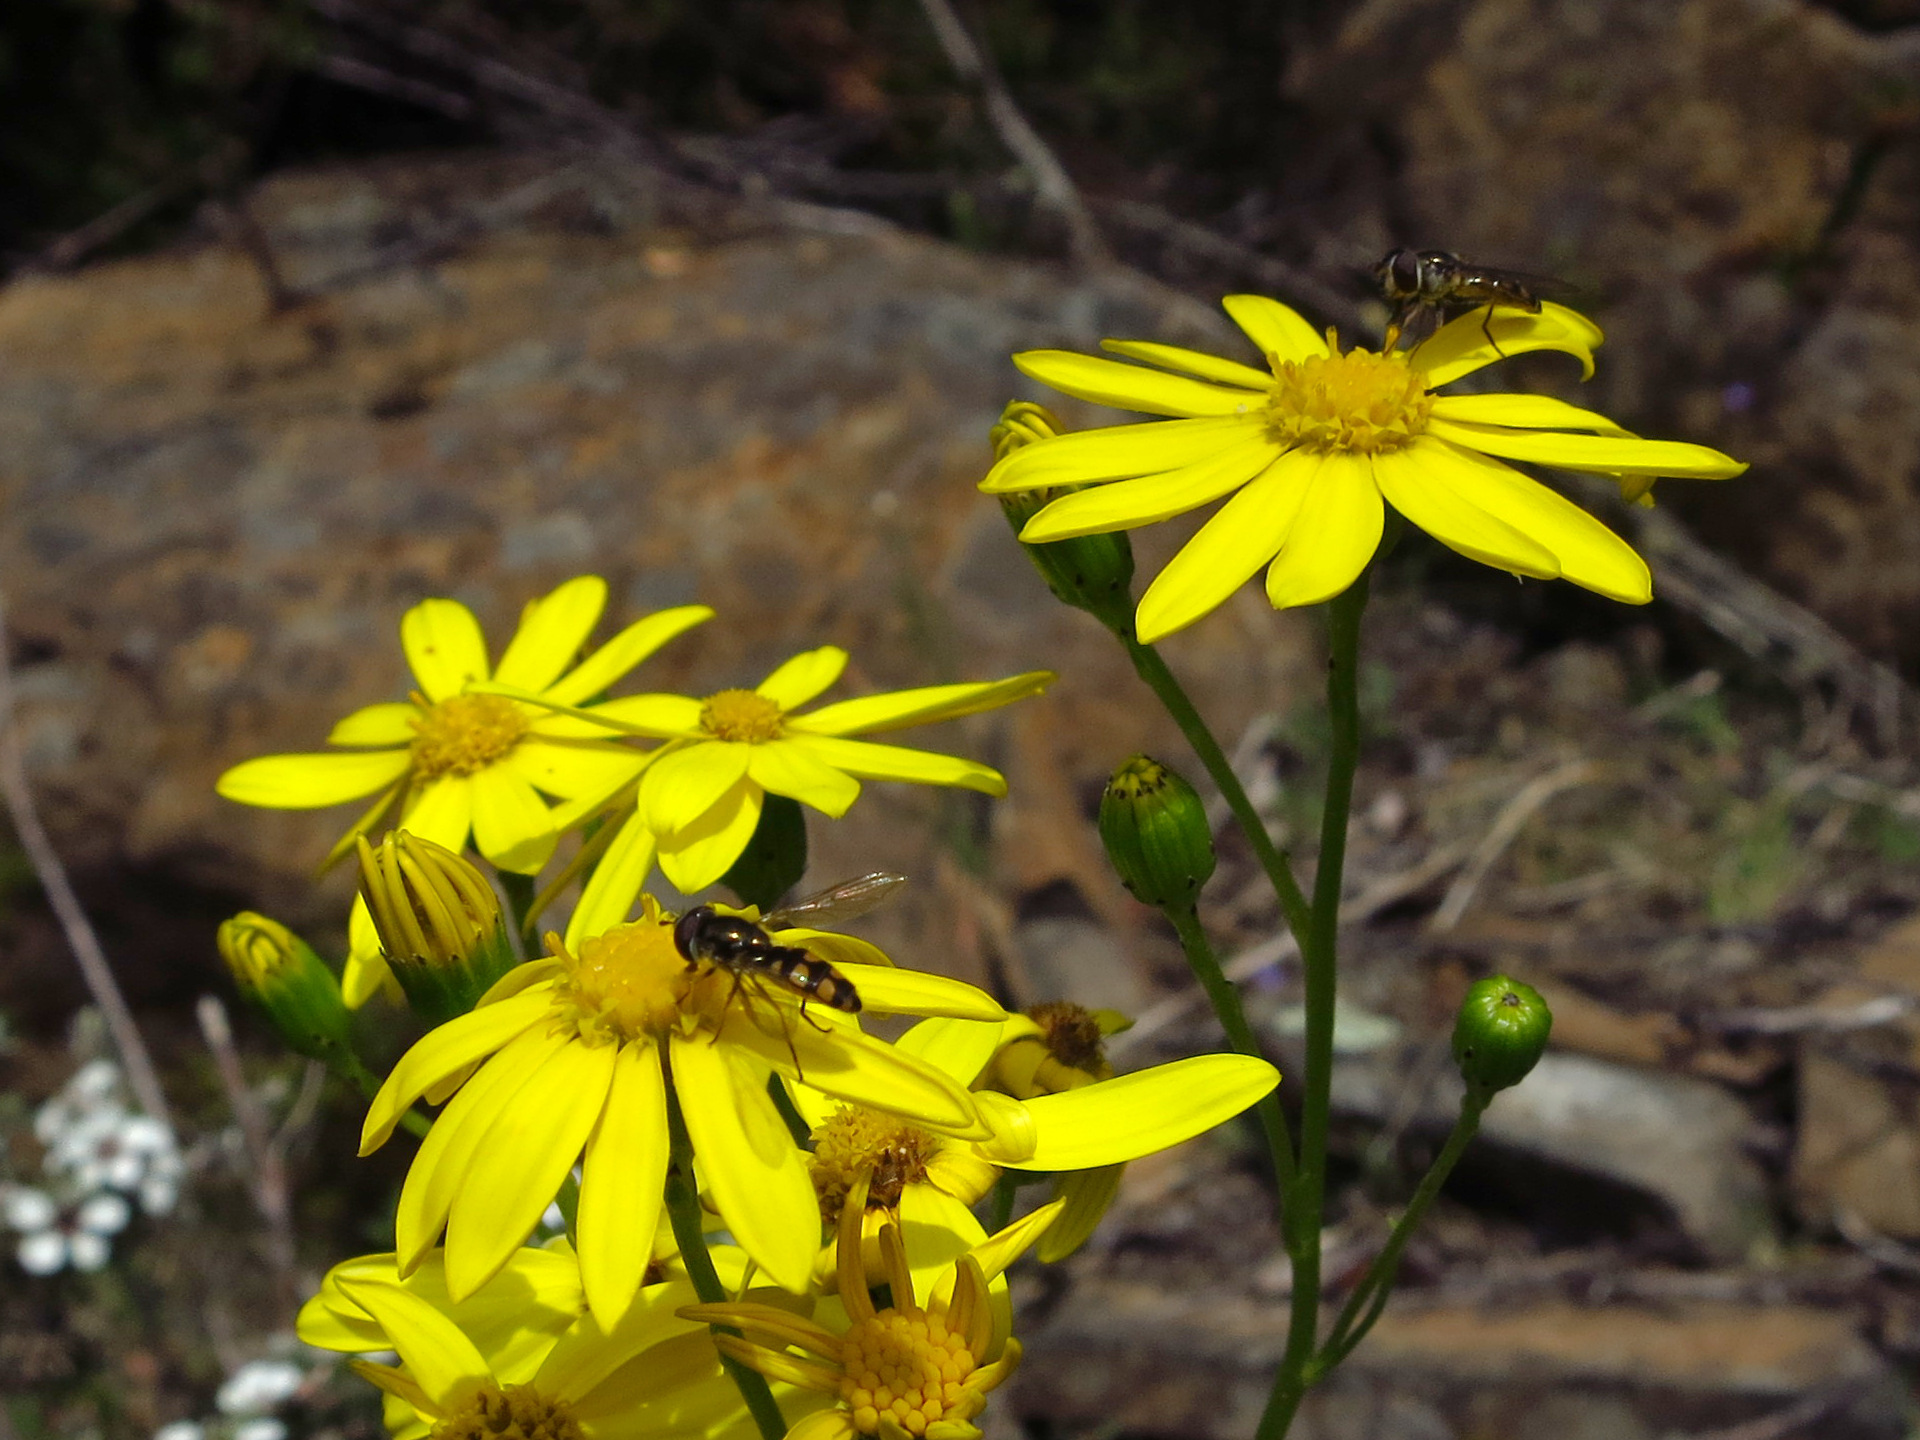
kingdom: Animalia
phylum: Arthropoda
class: Insecta
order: Diptera
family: Syrphidae
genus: Melangyna
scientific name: Melangyna viridiceps
